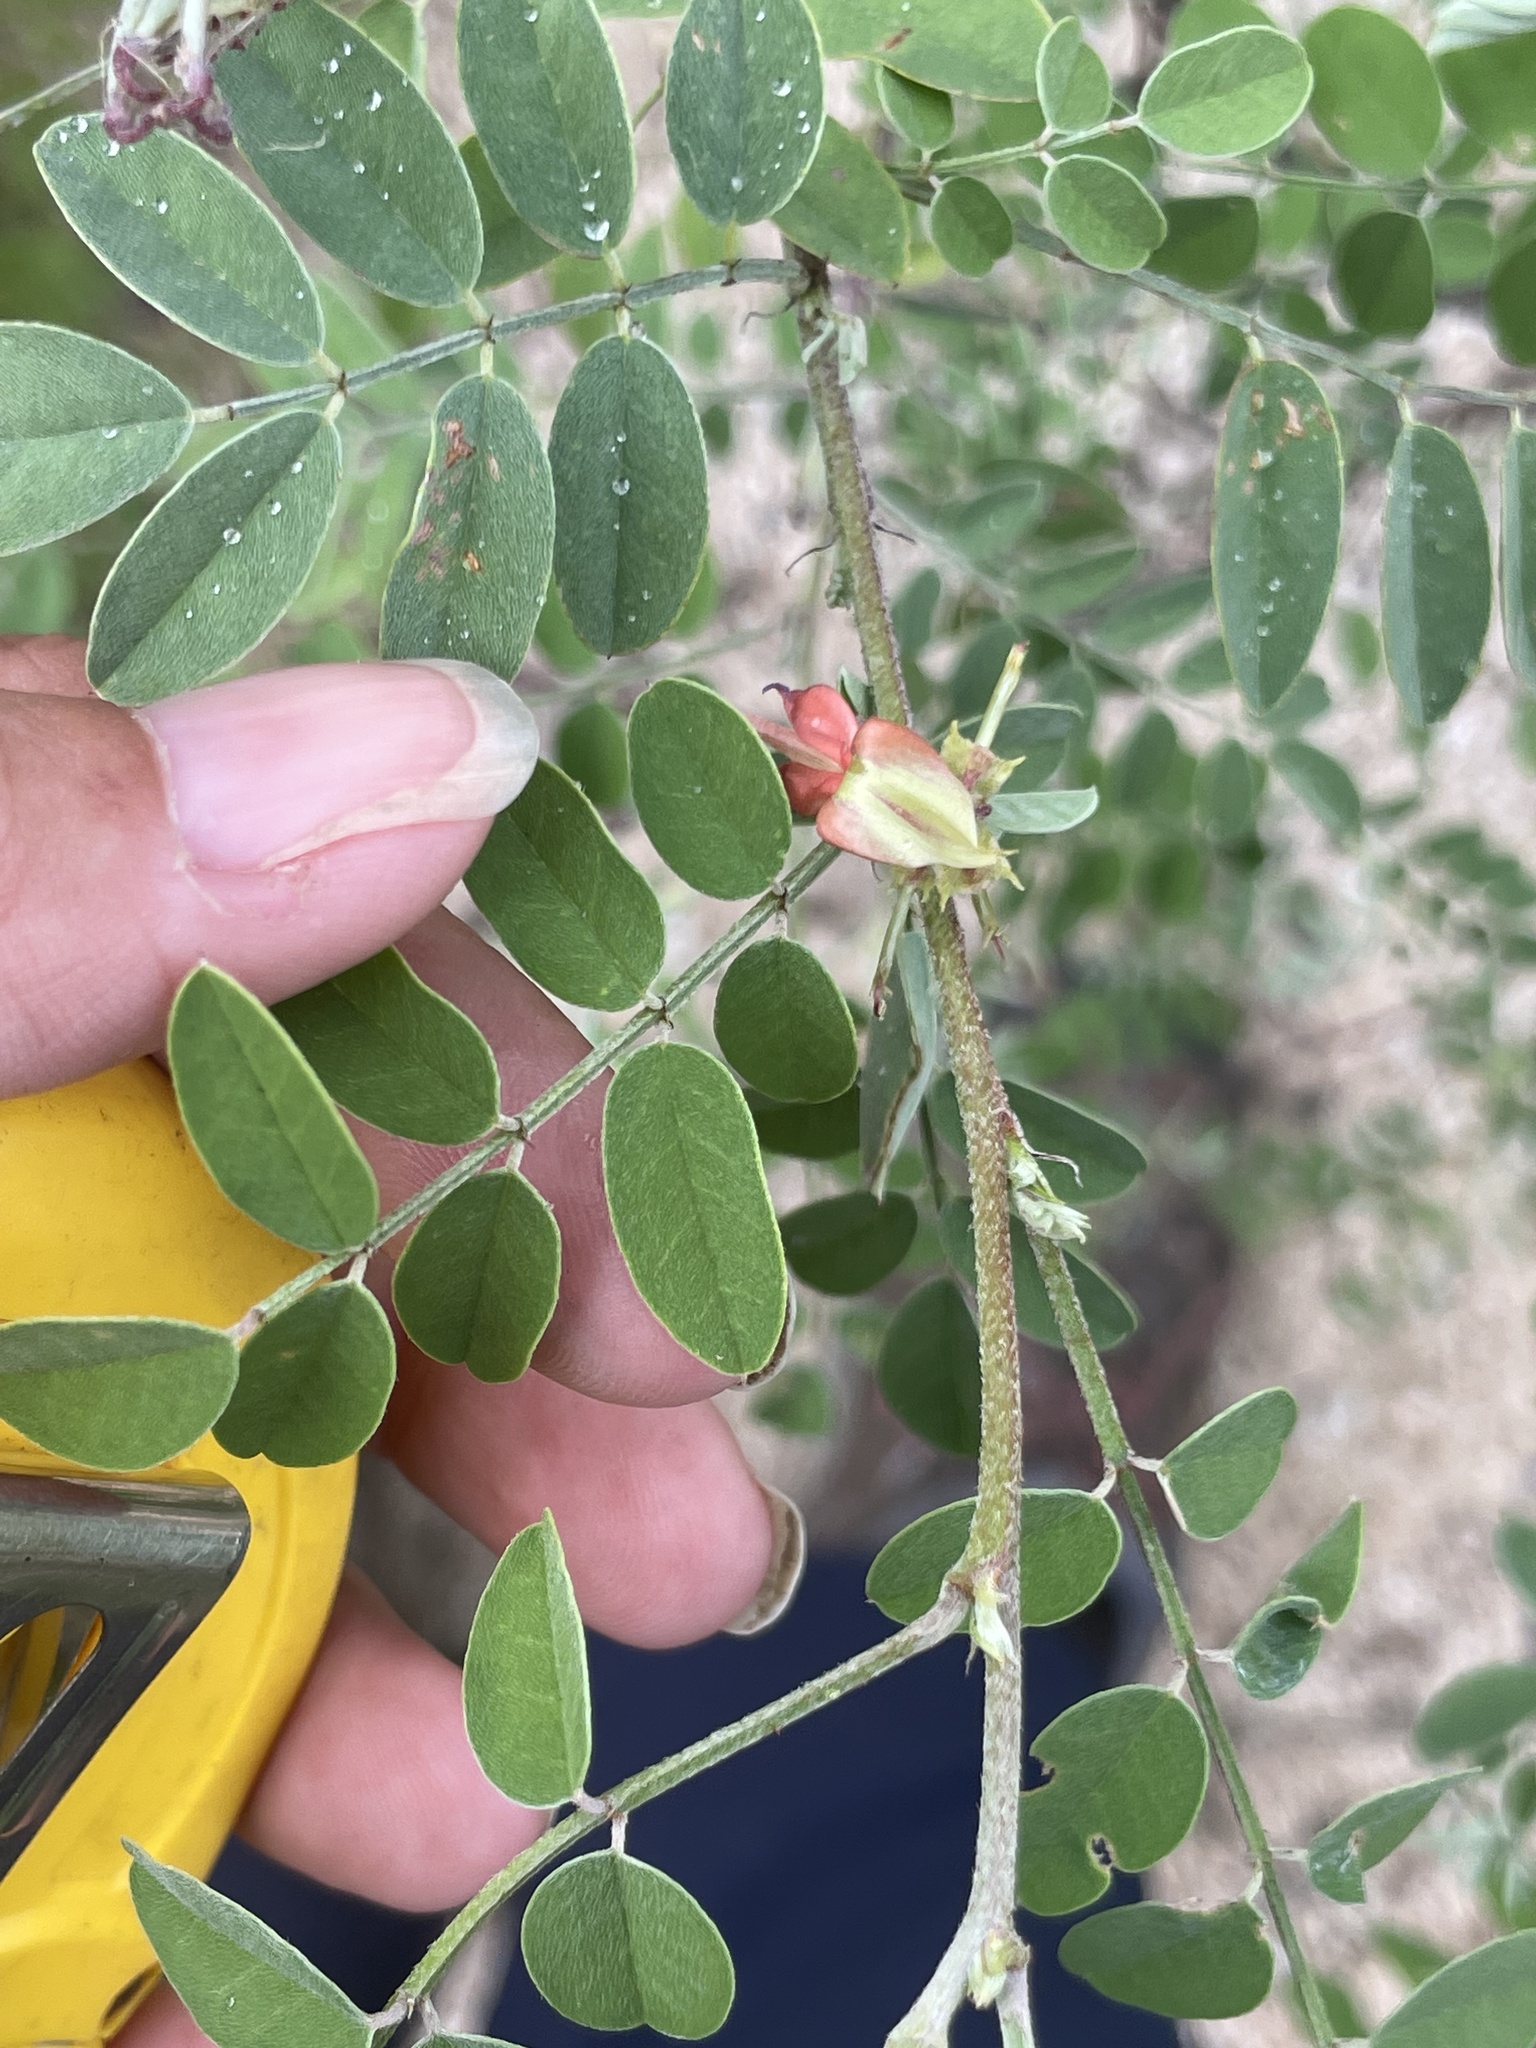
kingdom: Plantae
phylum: Tracheophyta
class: Magnoliopsida
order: Fabales
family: Fabaceae
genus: Indigofera
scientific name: Indigofera fruticosa
